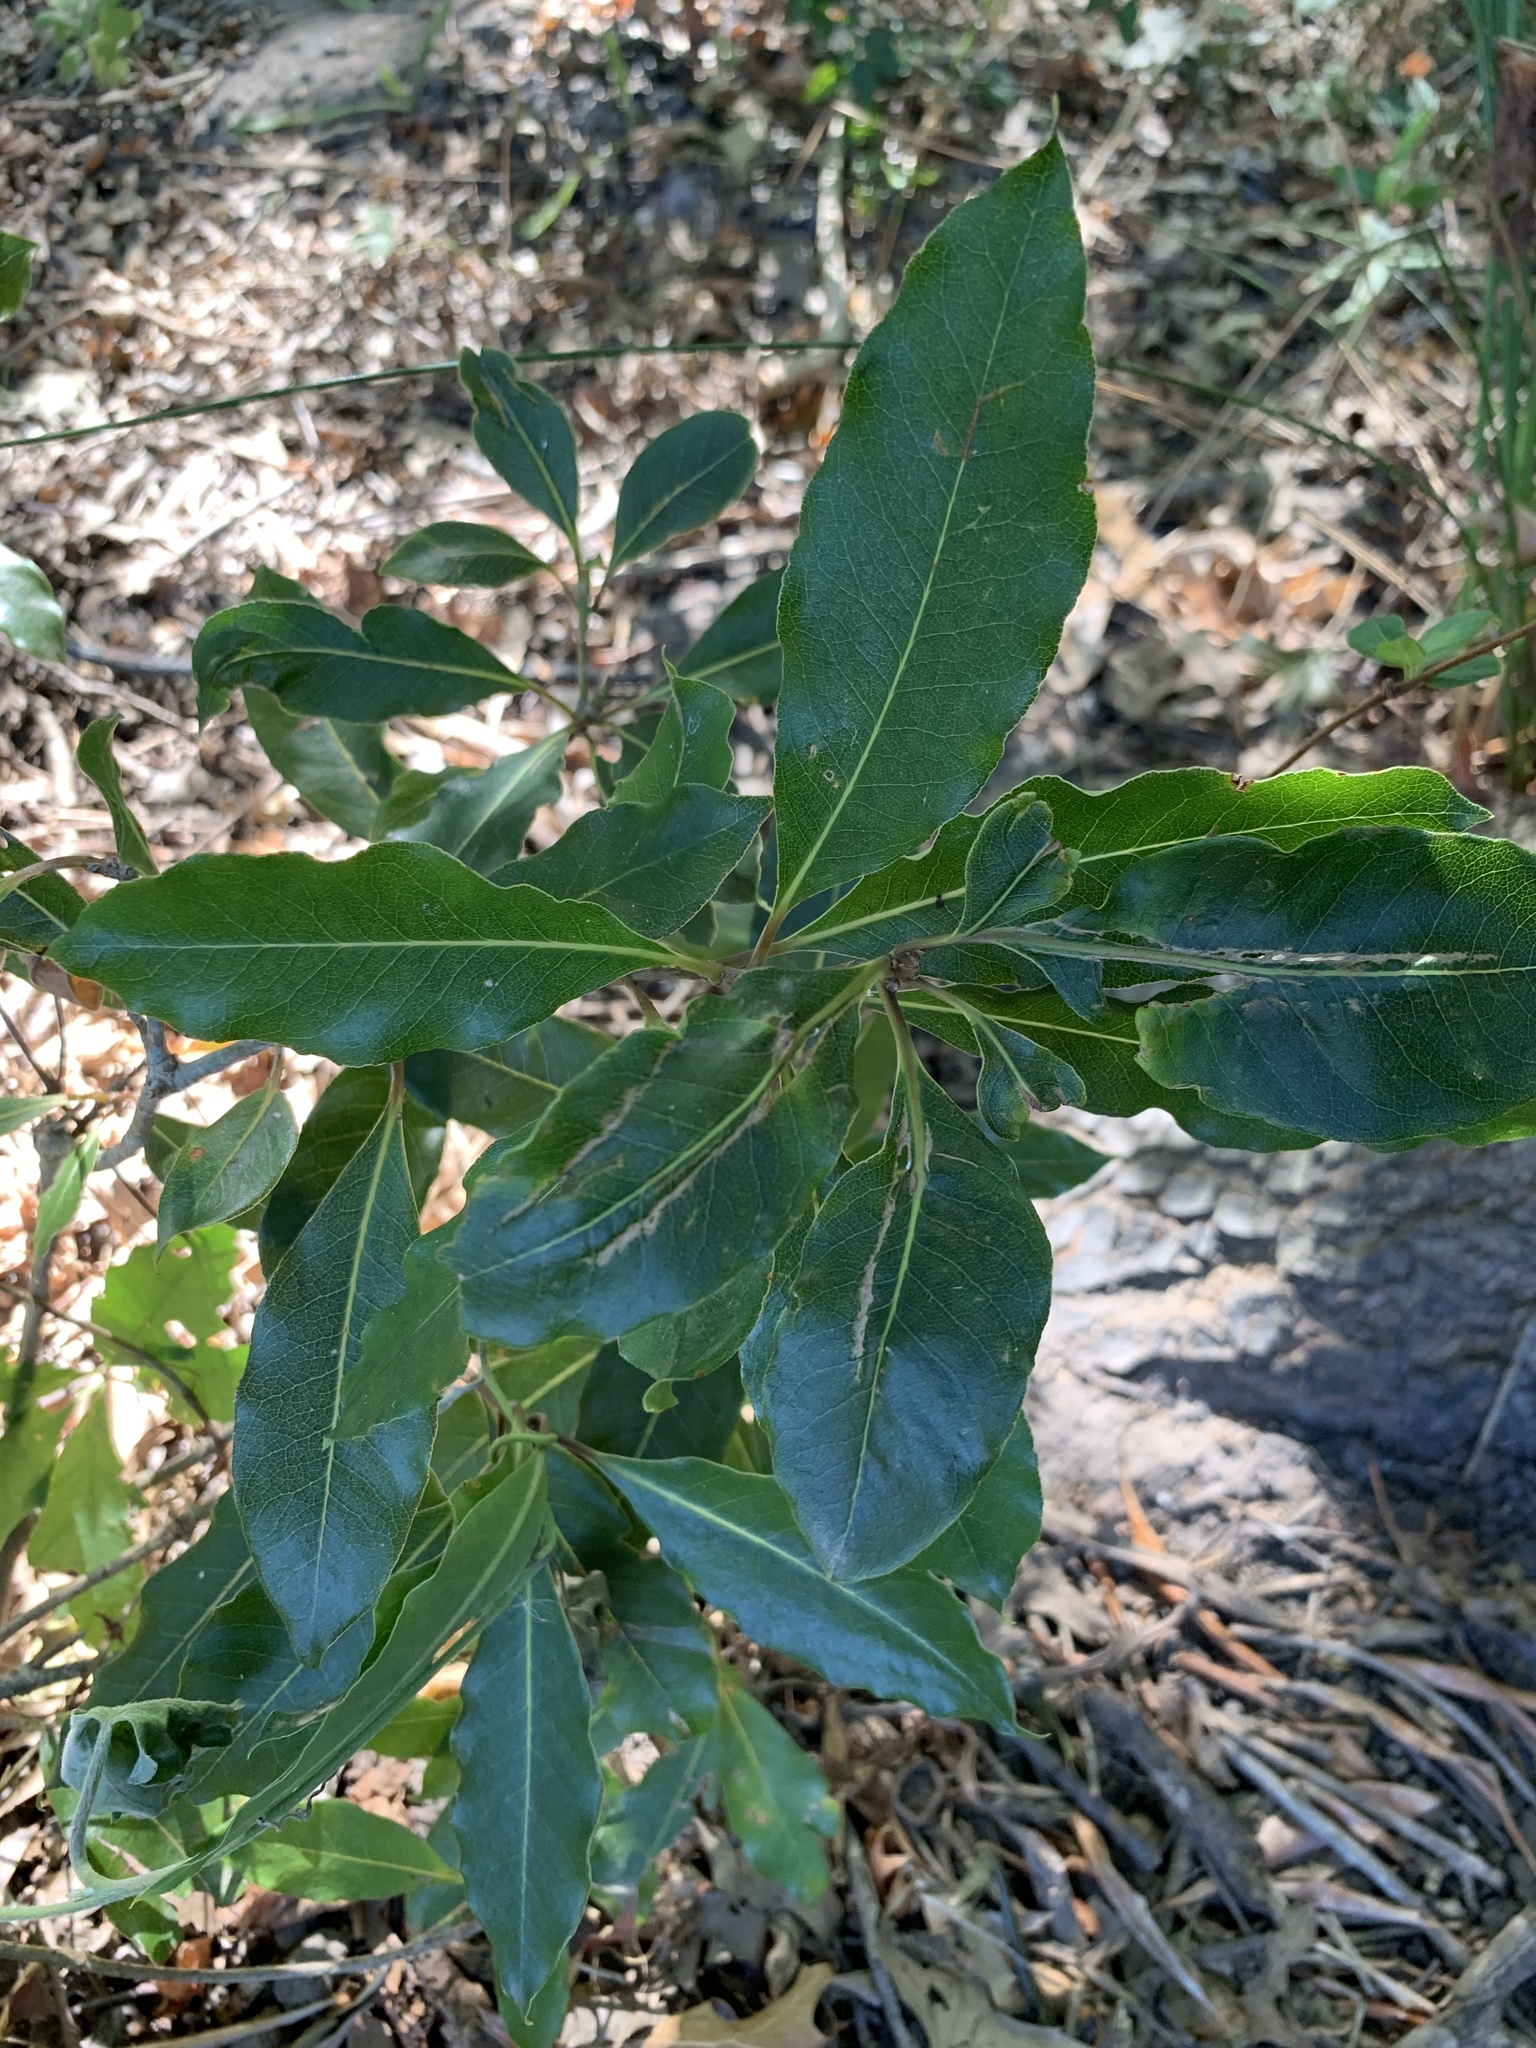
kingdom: Plantae
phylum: Tracheophyta
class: Magnoliopsida
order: Apiales
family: Pittosporaceae
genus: Pittosporum
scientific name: Pittosporum undulatum
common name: Australian cheesewood
